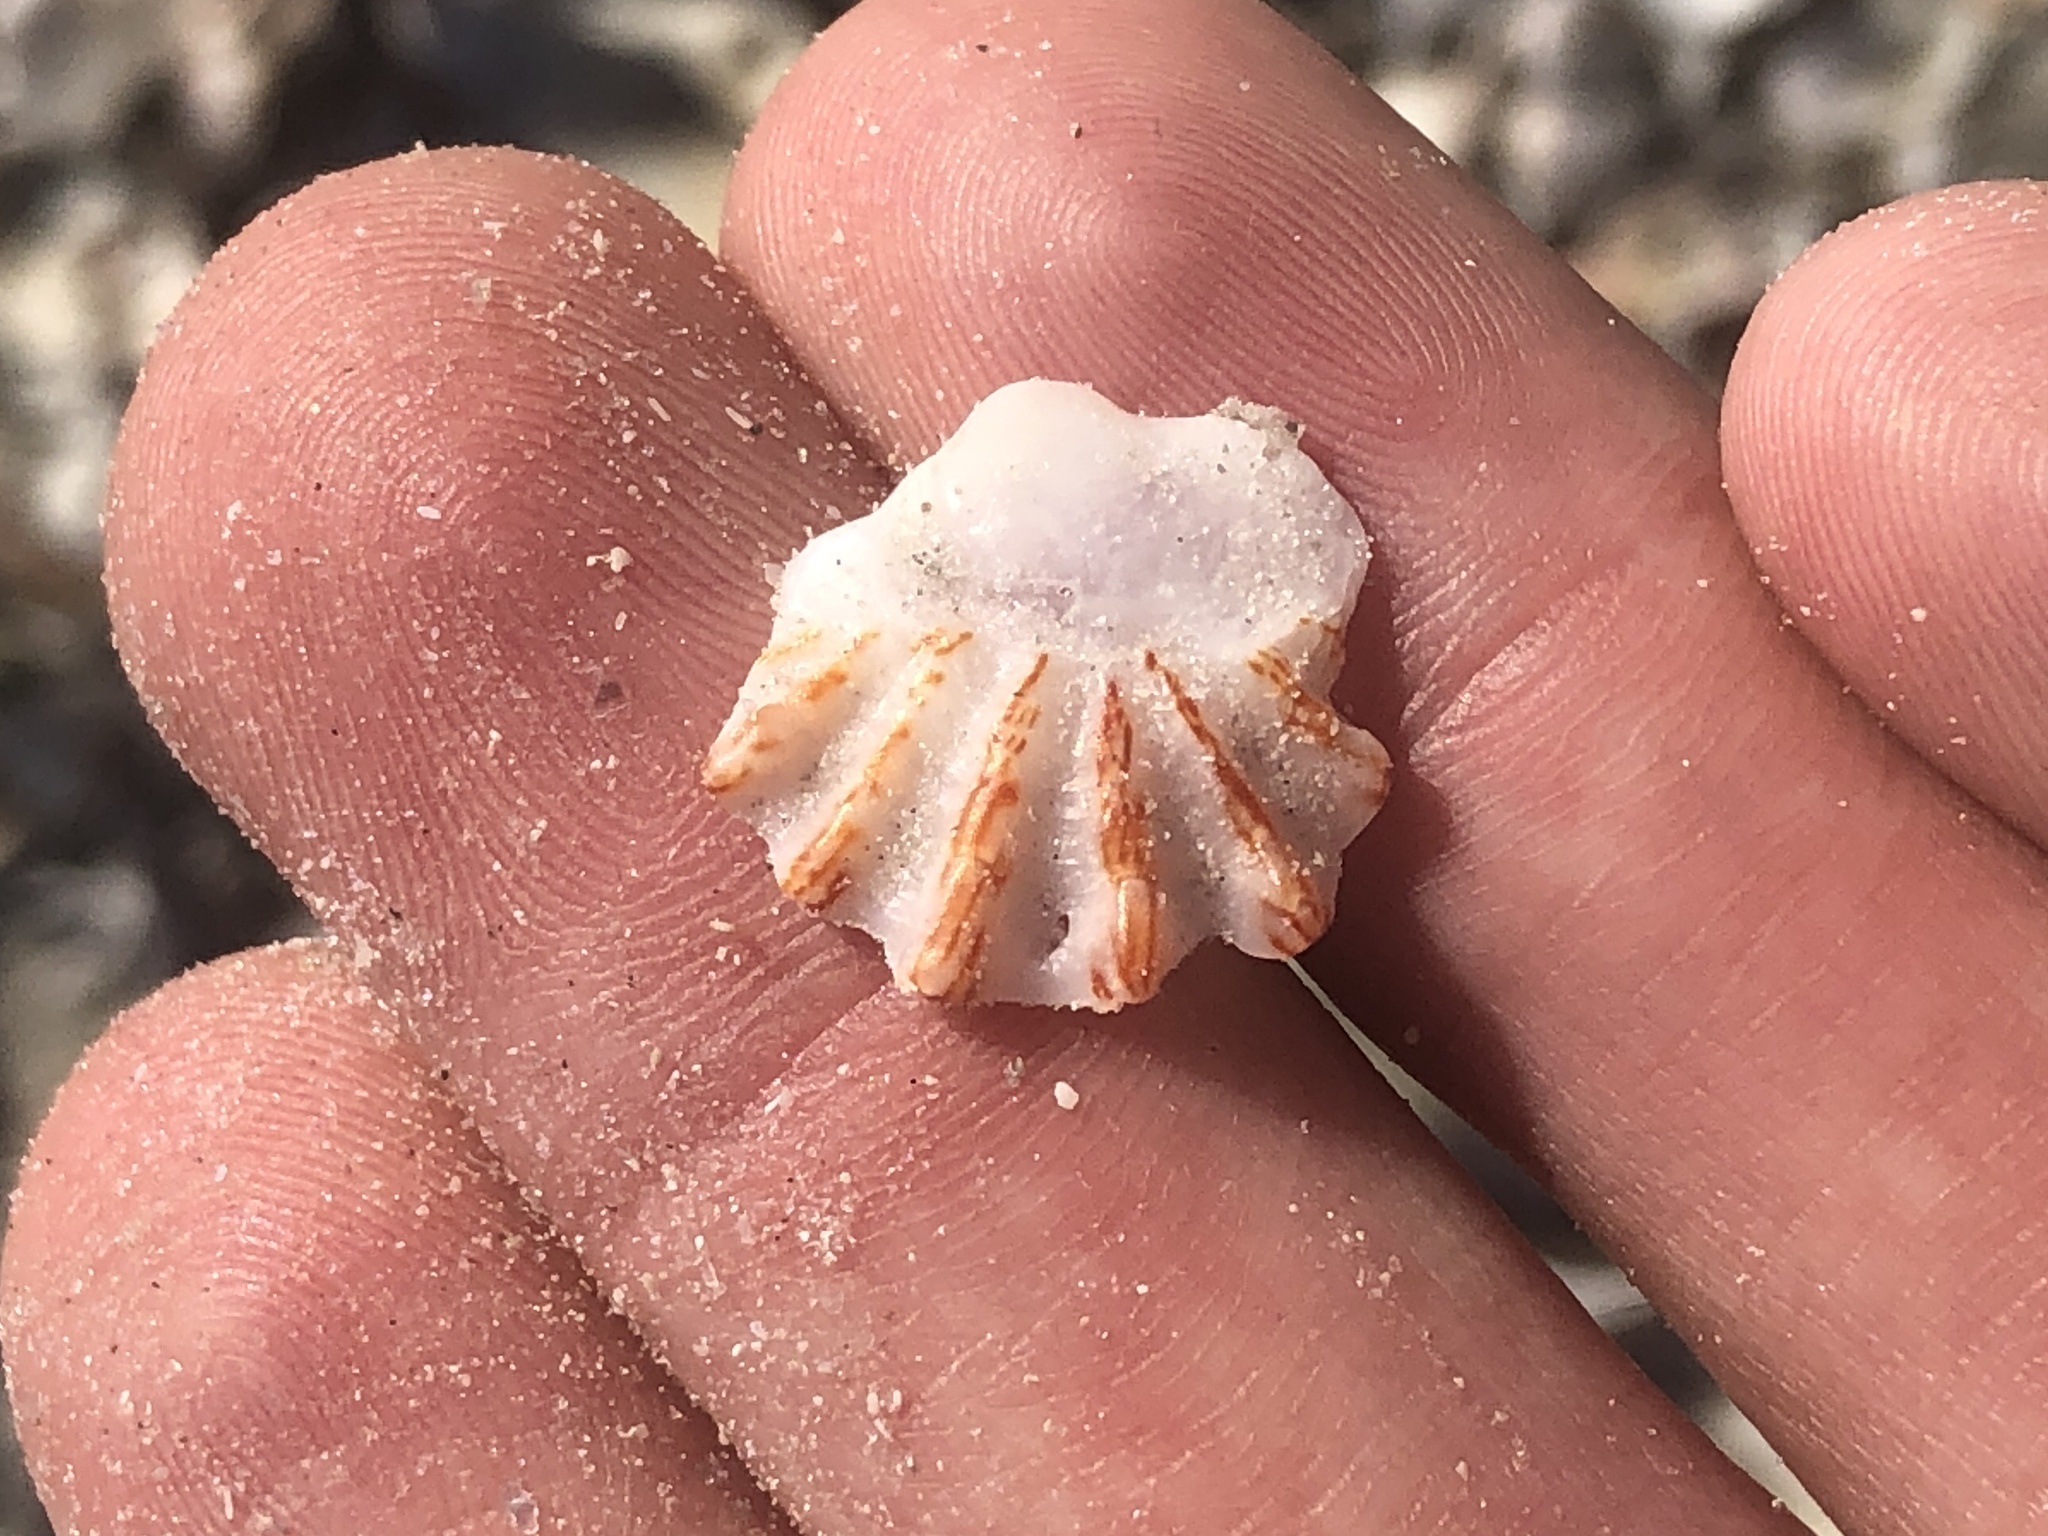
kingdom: Animalia
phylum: Mollusca
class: Bivalvia
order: Pectinida
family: Plicatulidae
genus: Plicatula
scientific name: Plicatula gibbosa
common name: Atlantic kitten's paw
